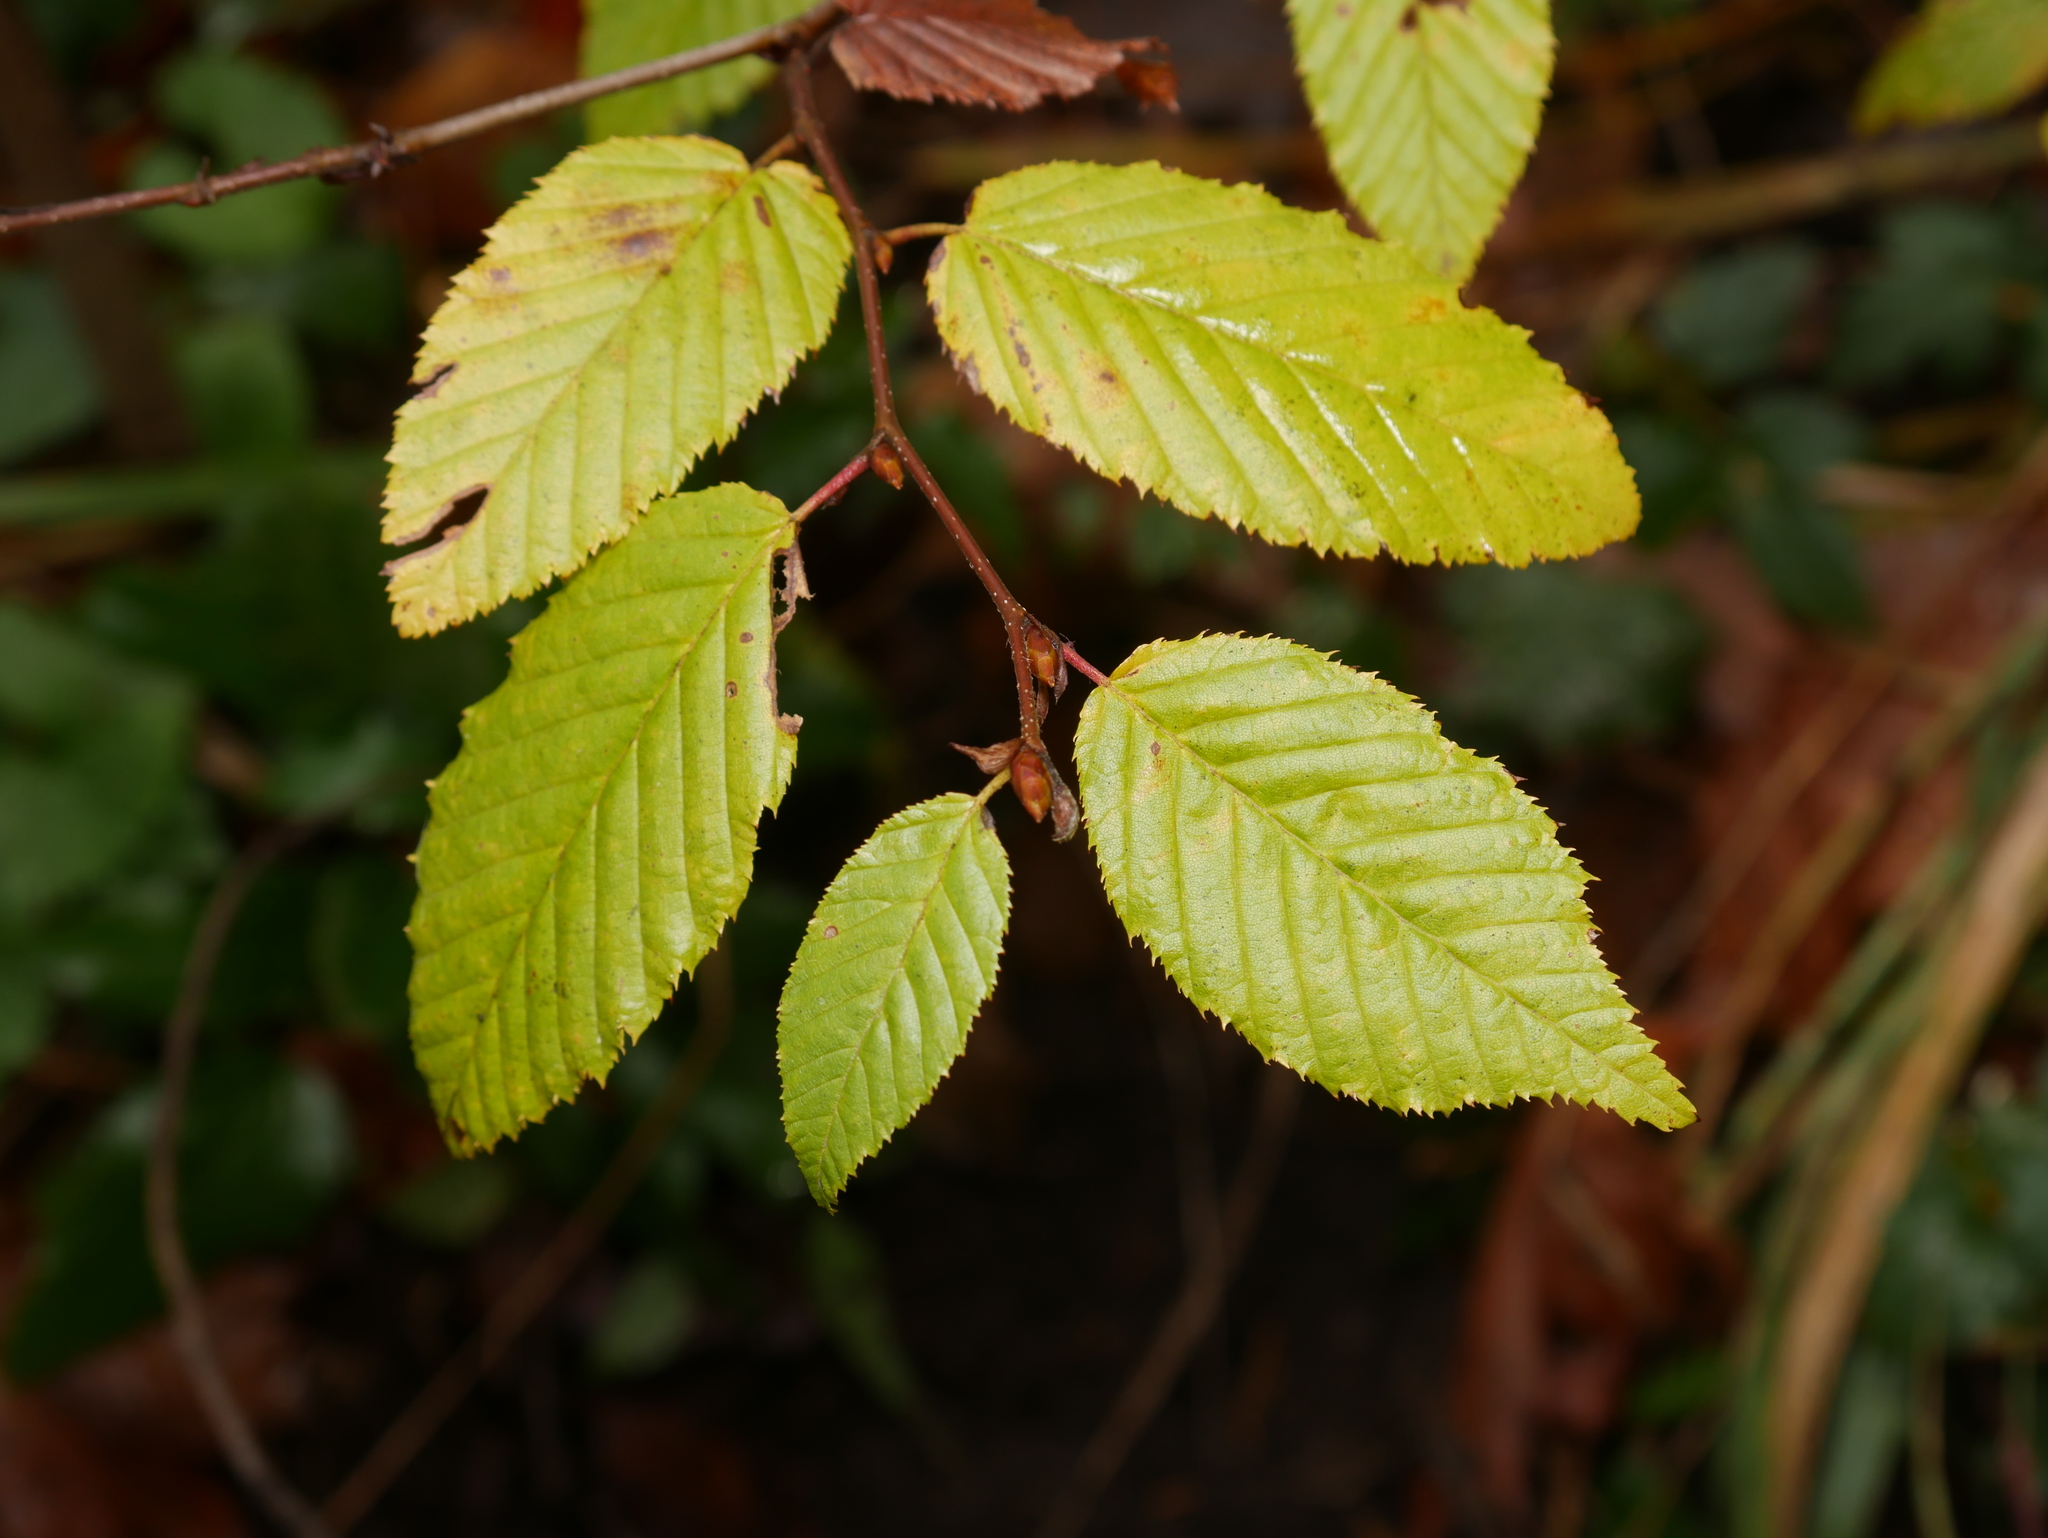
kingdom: Plantae
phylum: Tracheophyta
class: Magnoliopsida
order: Fagales
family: Betulaceae
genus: Carpinus
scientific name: Carpinus betulus
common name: Hornbeam
